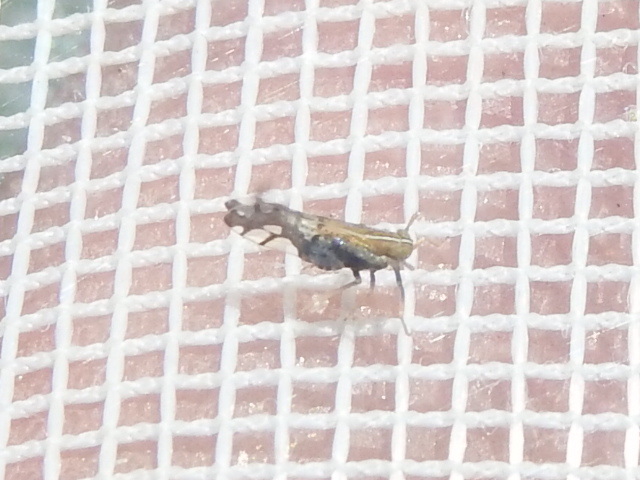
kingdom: Animalia
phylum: Arthropoda
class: Insecta
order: Hemiptera
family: Delphacidae
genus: Liburniella
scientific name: Liburniella ornata
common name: Ornate planthopper
